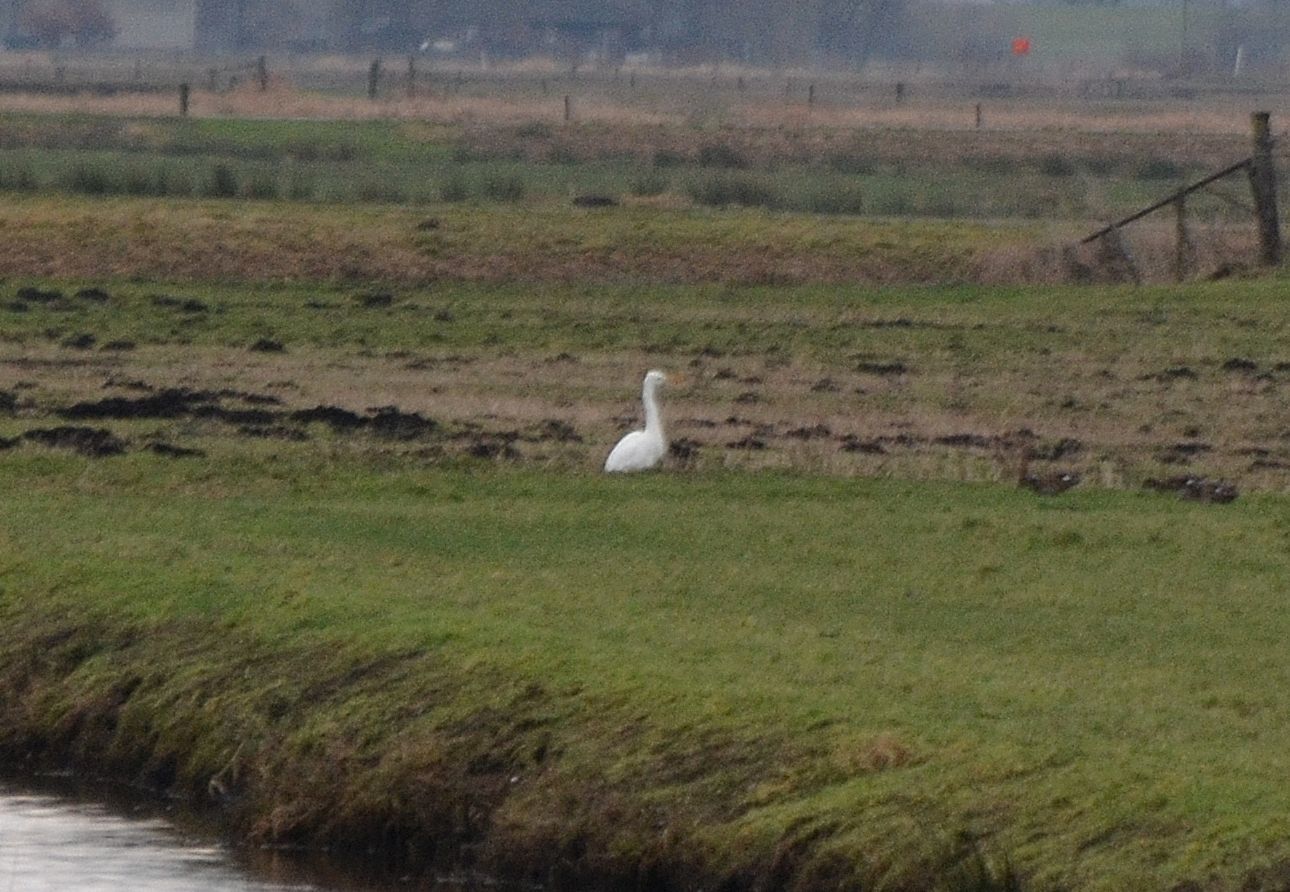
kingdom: Animalia
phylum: Chordata
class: Aves
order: Pelecaniformes
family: Ardeidae
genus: Ardea
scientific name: Ardea alba
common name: Great egret
